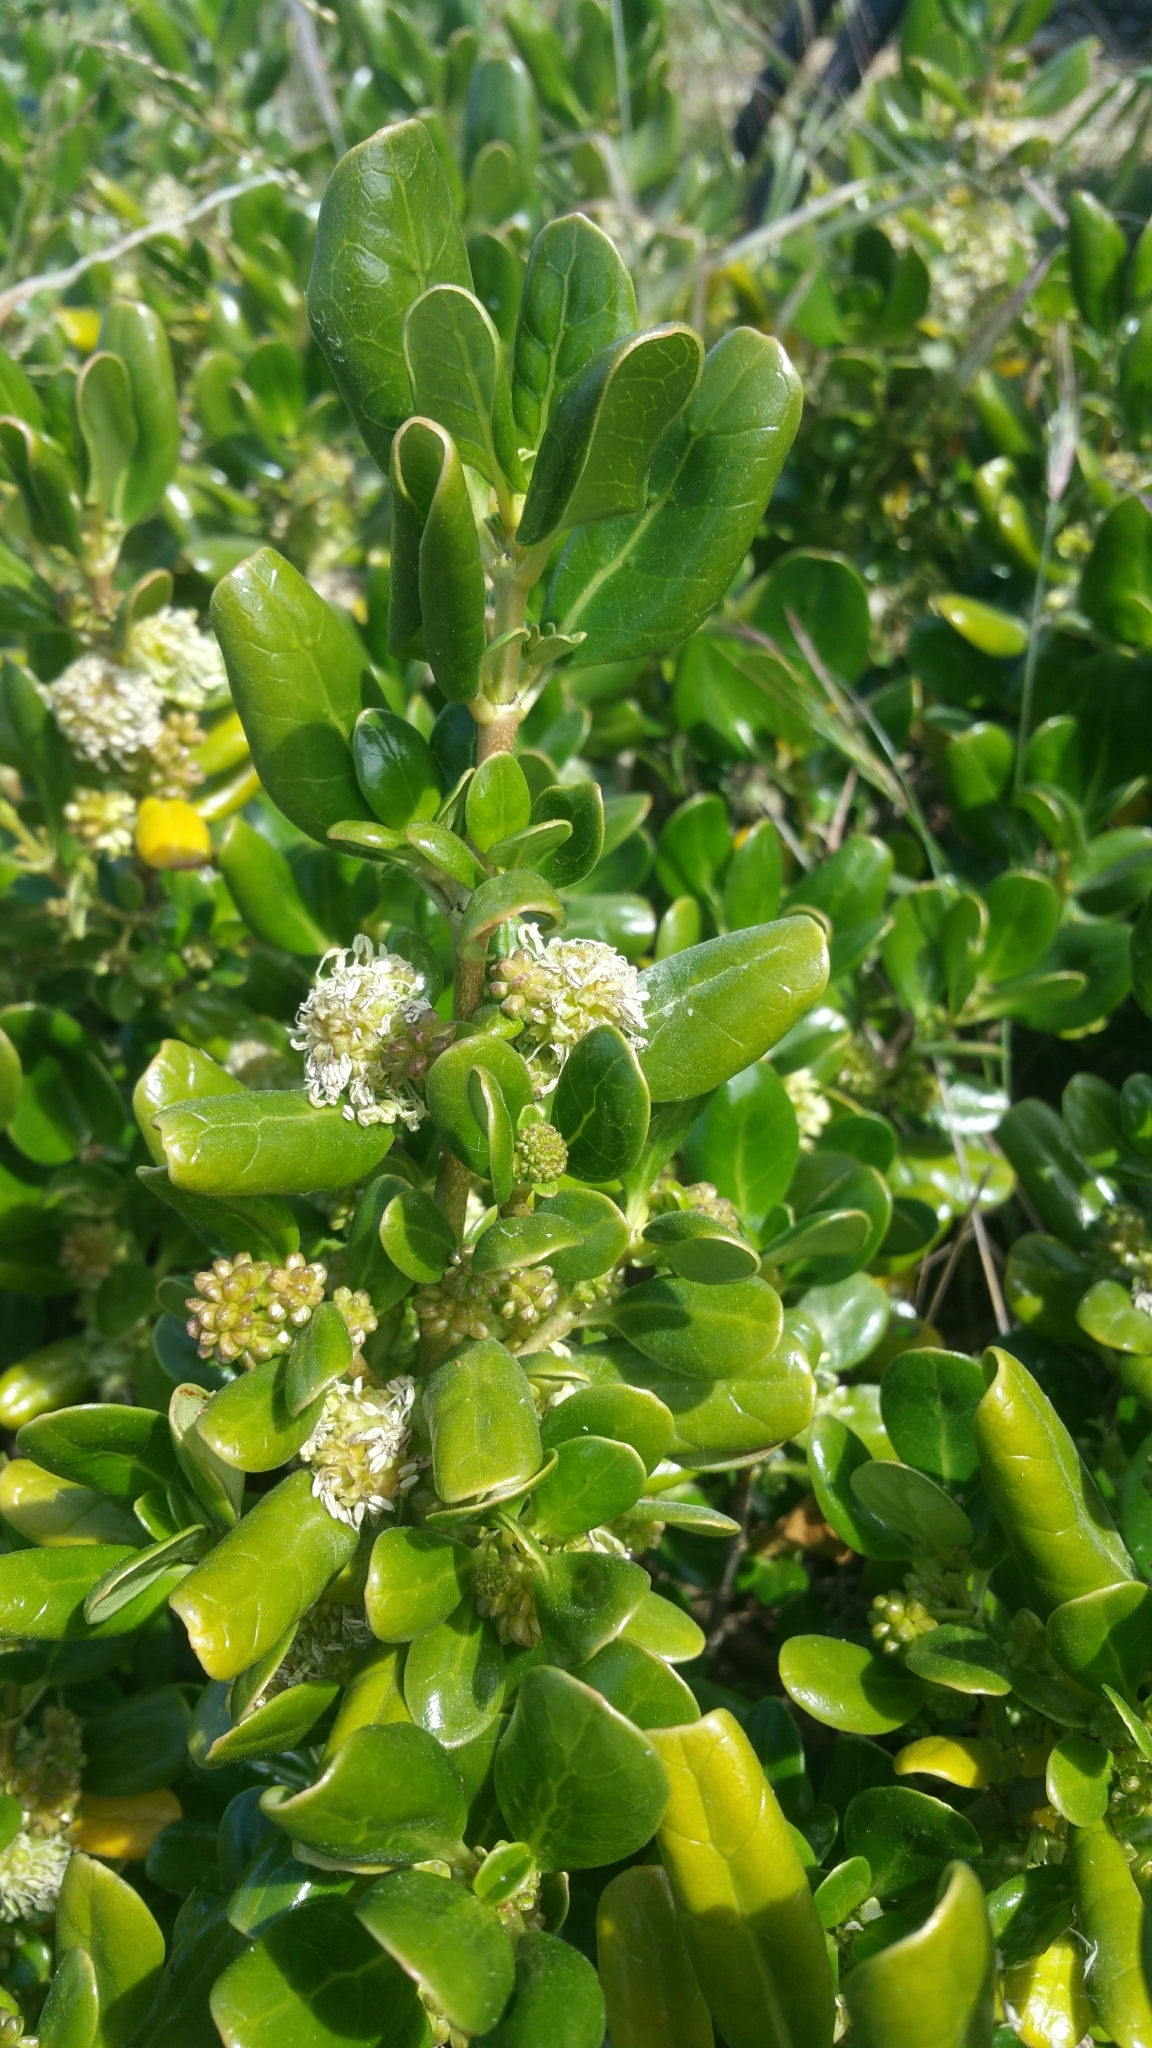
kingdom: Plantae
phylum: Tracheophyta
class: Magnoliopsida
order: Gentianales
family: Rubiaceae
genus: Coprosma
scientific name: Coprosma repens
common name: Tree bedstraw
